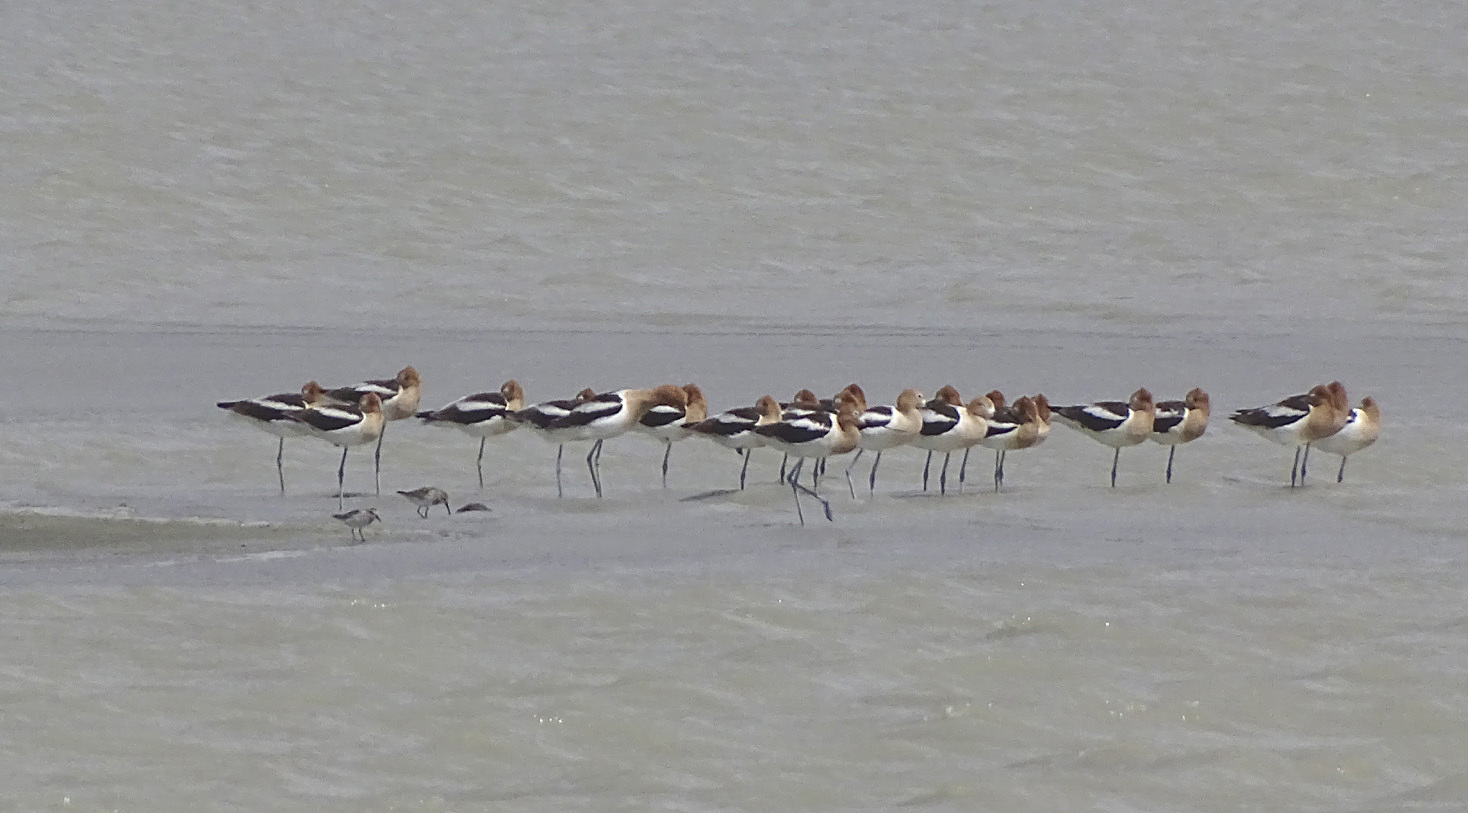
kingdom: Animalia
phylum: Chordata
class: Aves
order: Charadriiformes
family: Recurvirostridae
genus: Recurvirostra
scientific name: Recurvirostra americana
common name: American avocet
